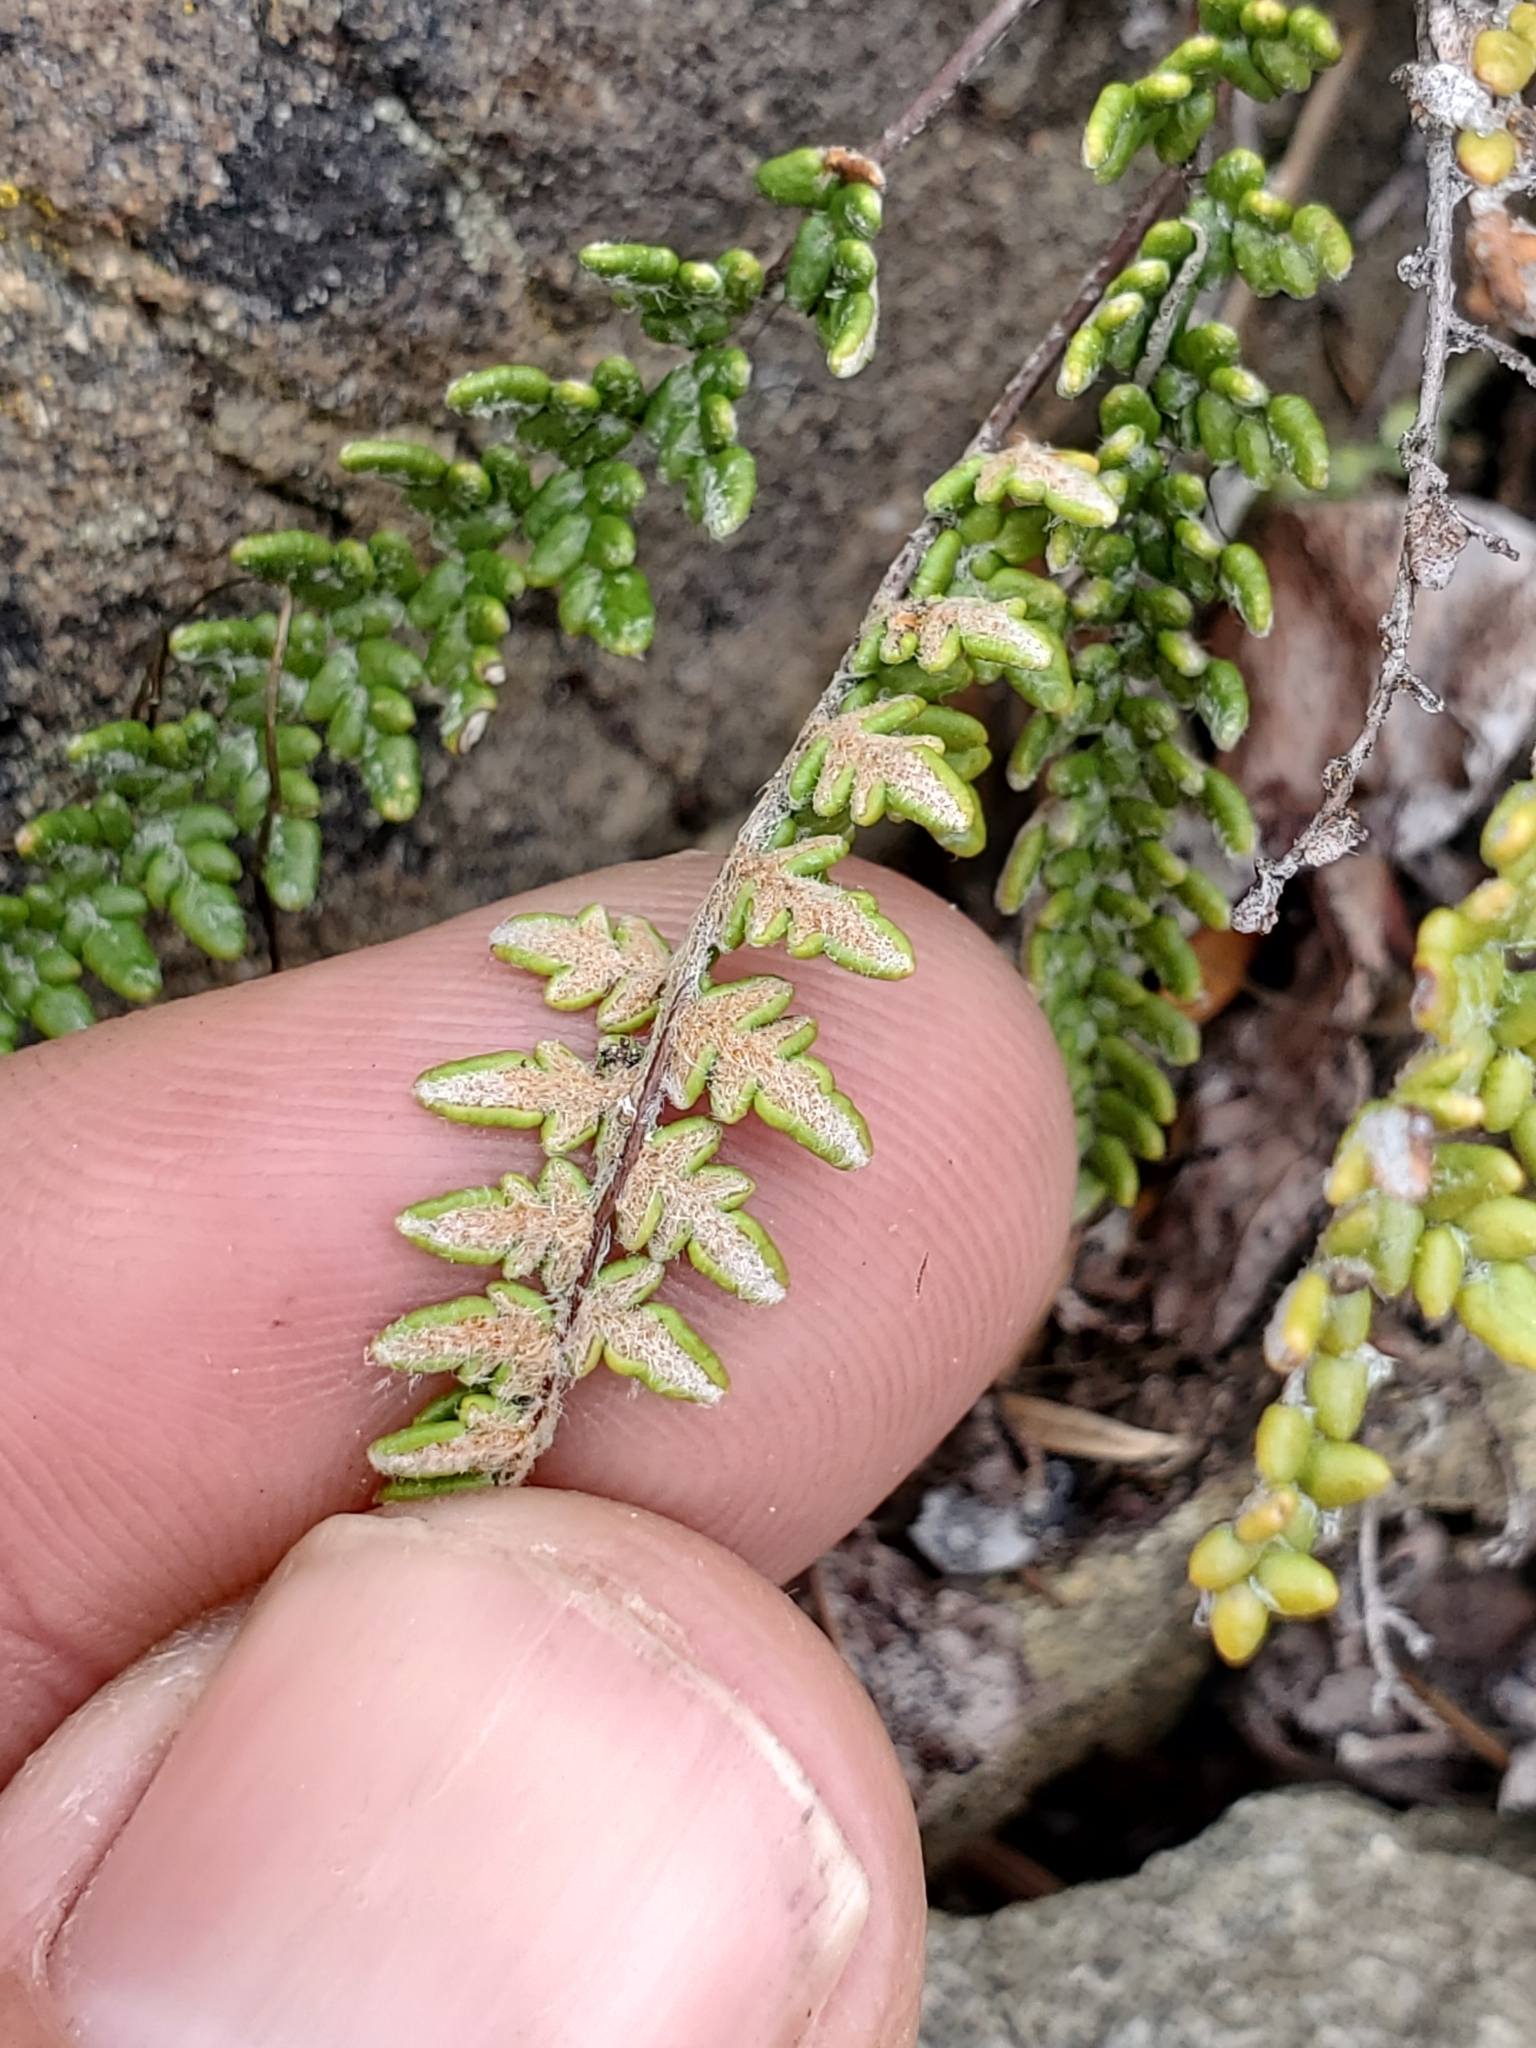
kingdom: Plantae
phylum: Tracheophyta
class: Polypodiopsida
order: Polypodiales
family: Pteridaceae
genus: Myriopteris
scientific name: Myriopteris gracillima
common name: Lace fern
